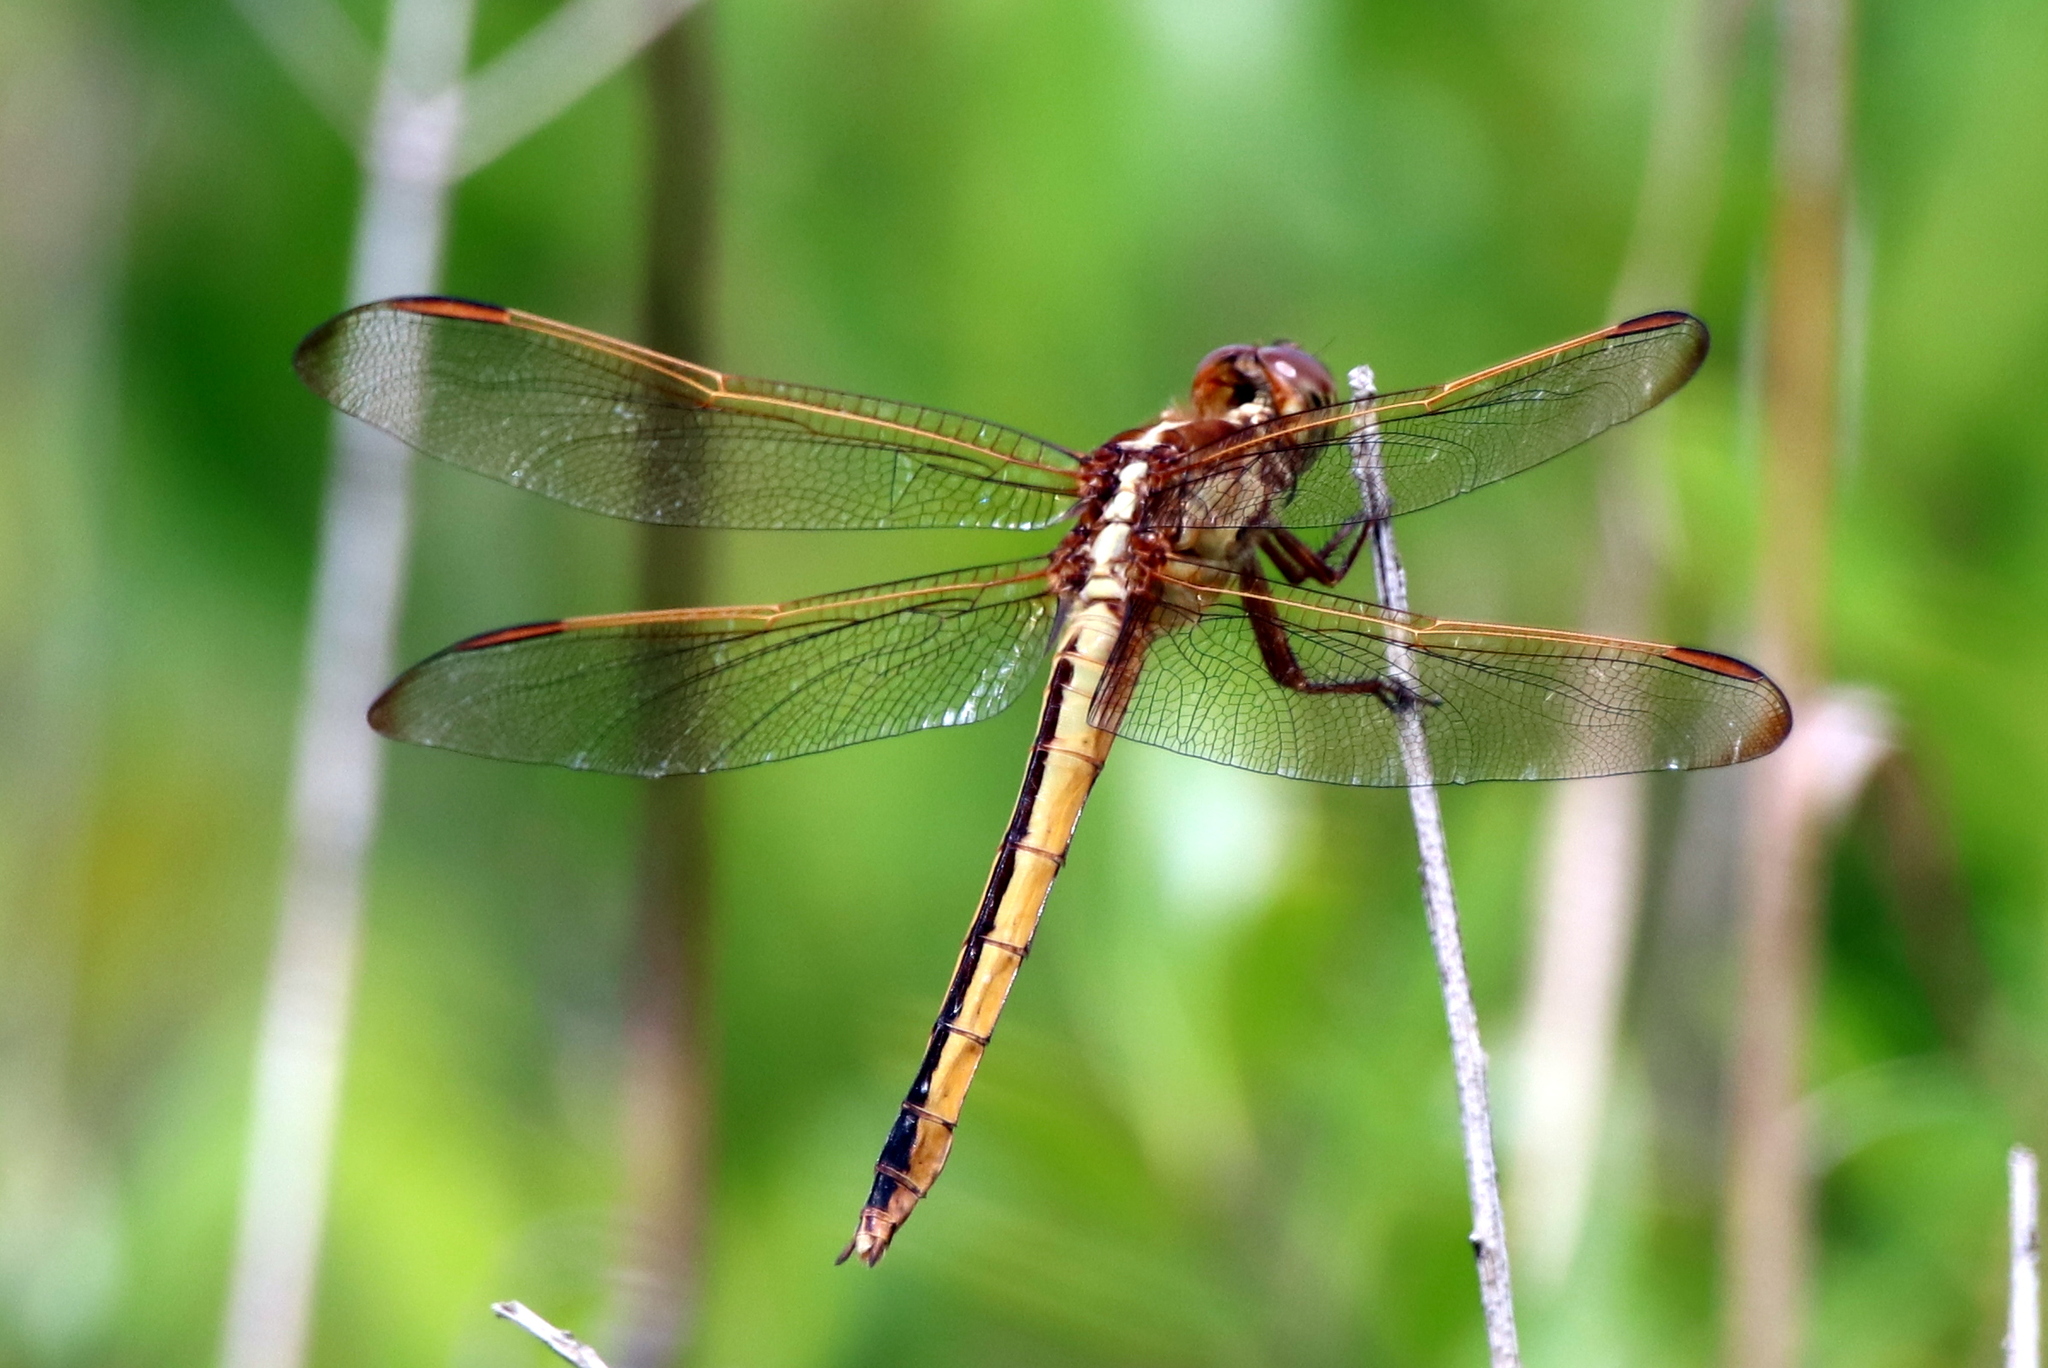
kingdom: Animalia
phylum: Arthropoda
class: Insecta
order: Odonata
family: Libellulidae
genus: Libellula
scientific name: Libellula needhami
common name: Needham's skimmer
